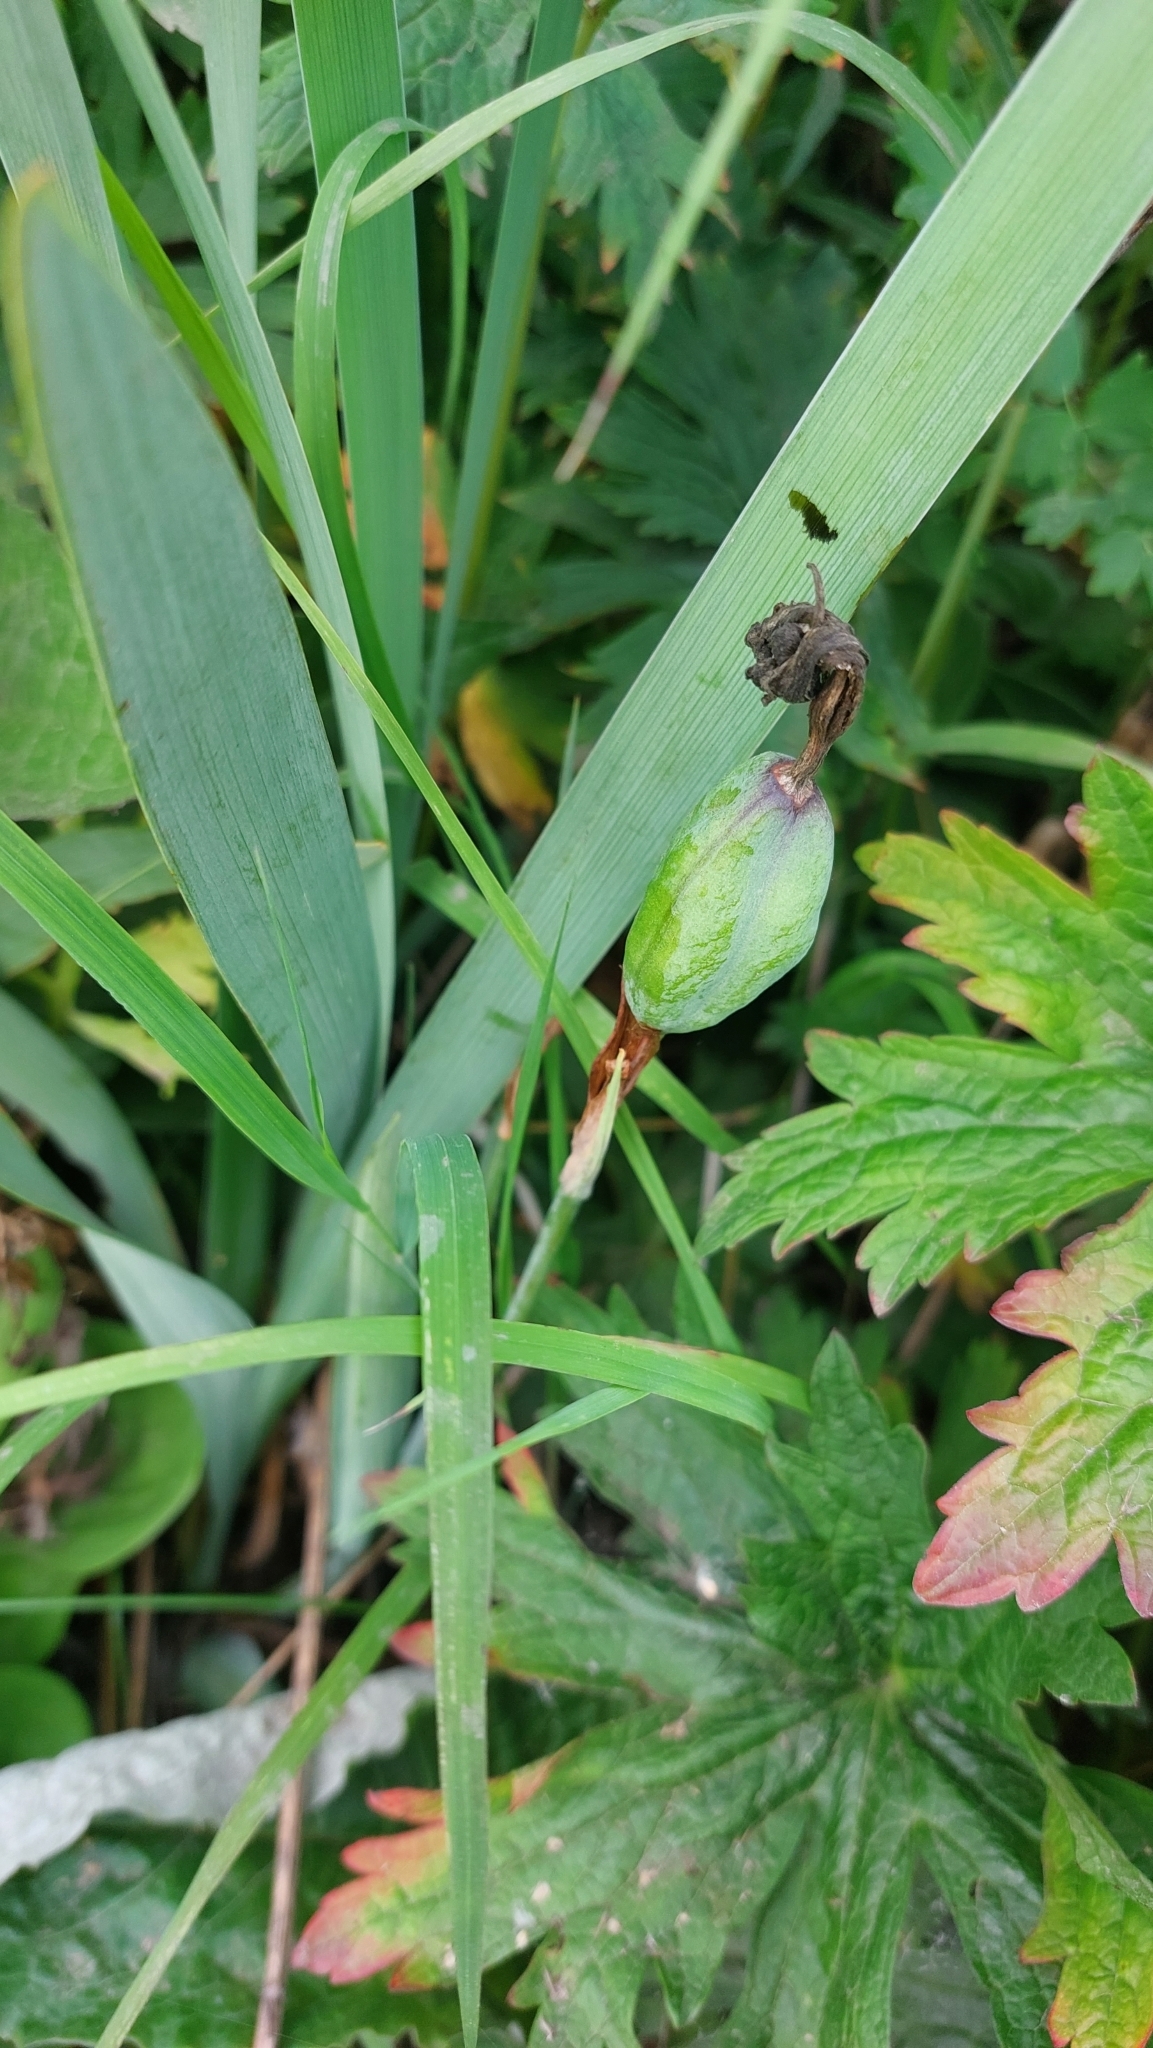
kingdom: Plantae
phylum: Tracheophyta
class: Liliopsida
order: Asparagales
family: Iridaceae
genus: Iris
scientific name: Iris setosa
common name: Arctic blue flag
